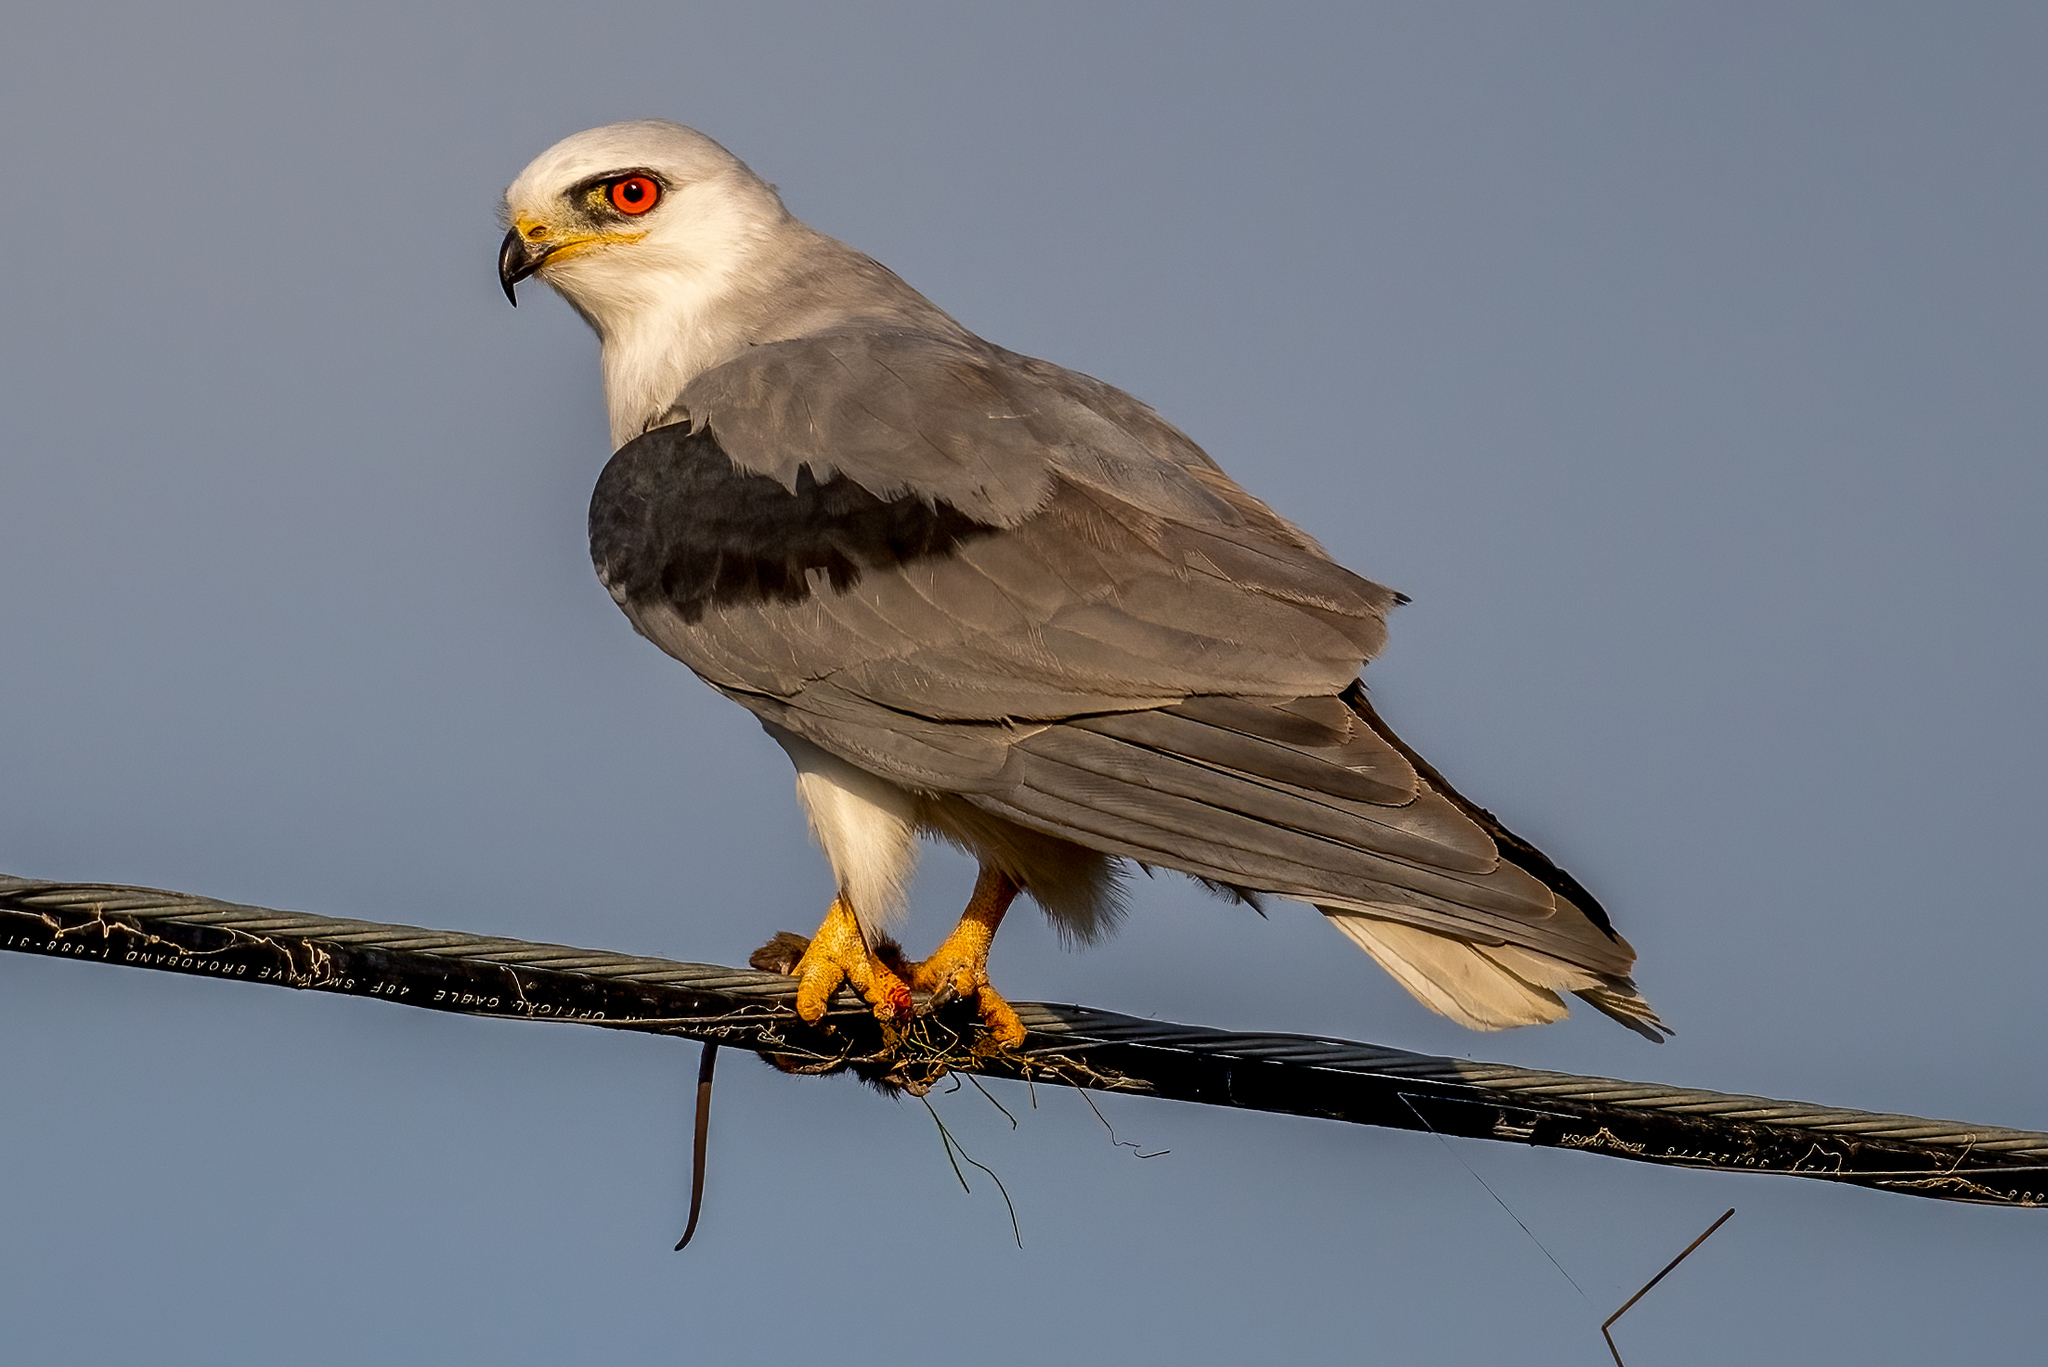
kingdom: Animalia
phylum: Chordata
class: Aves
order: Accipitriformes
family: Accipitridae
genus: Elanus
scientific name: Elanus leucurus
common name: White-tailed kite
